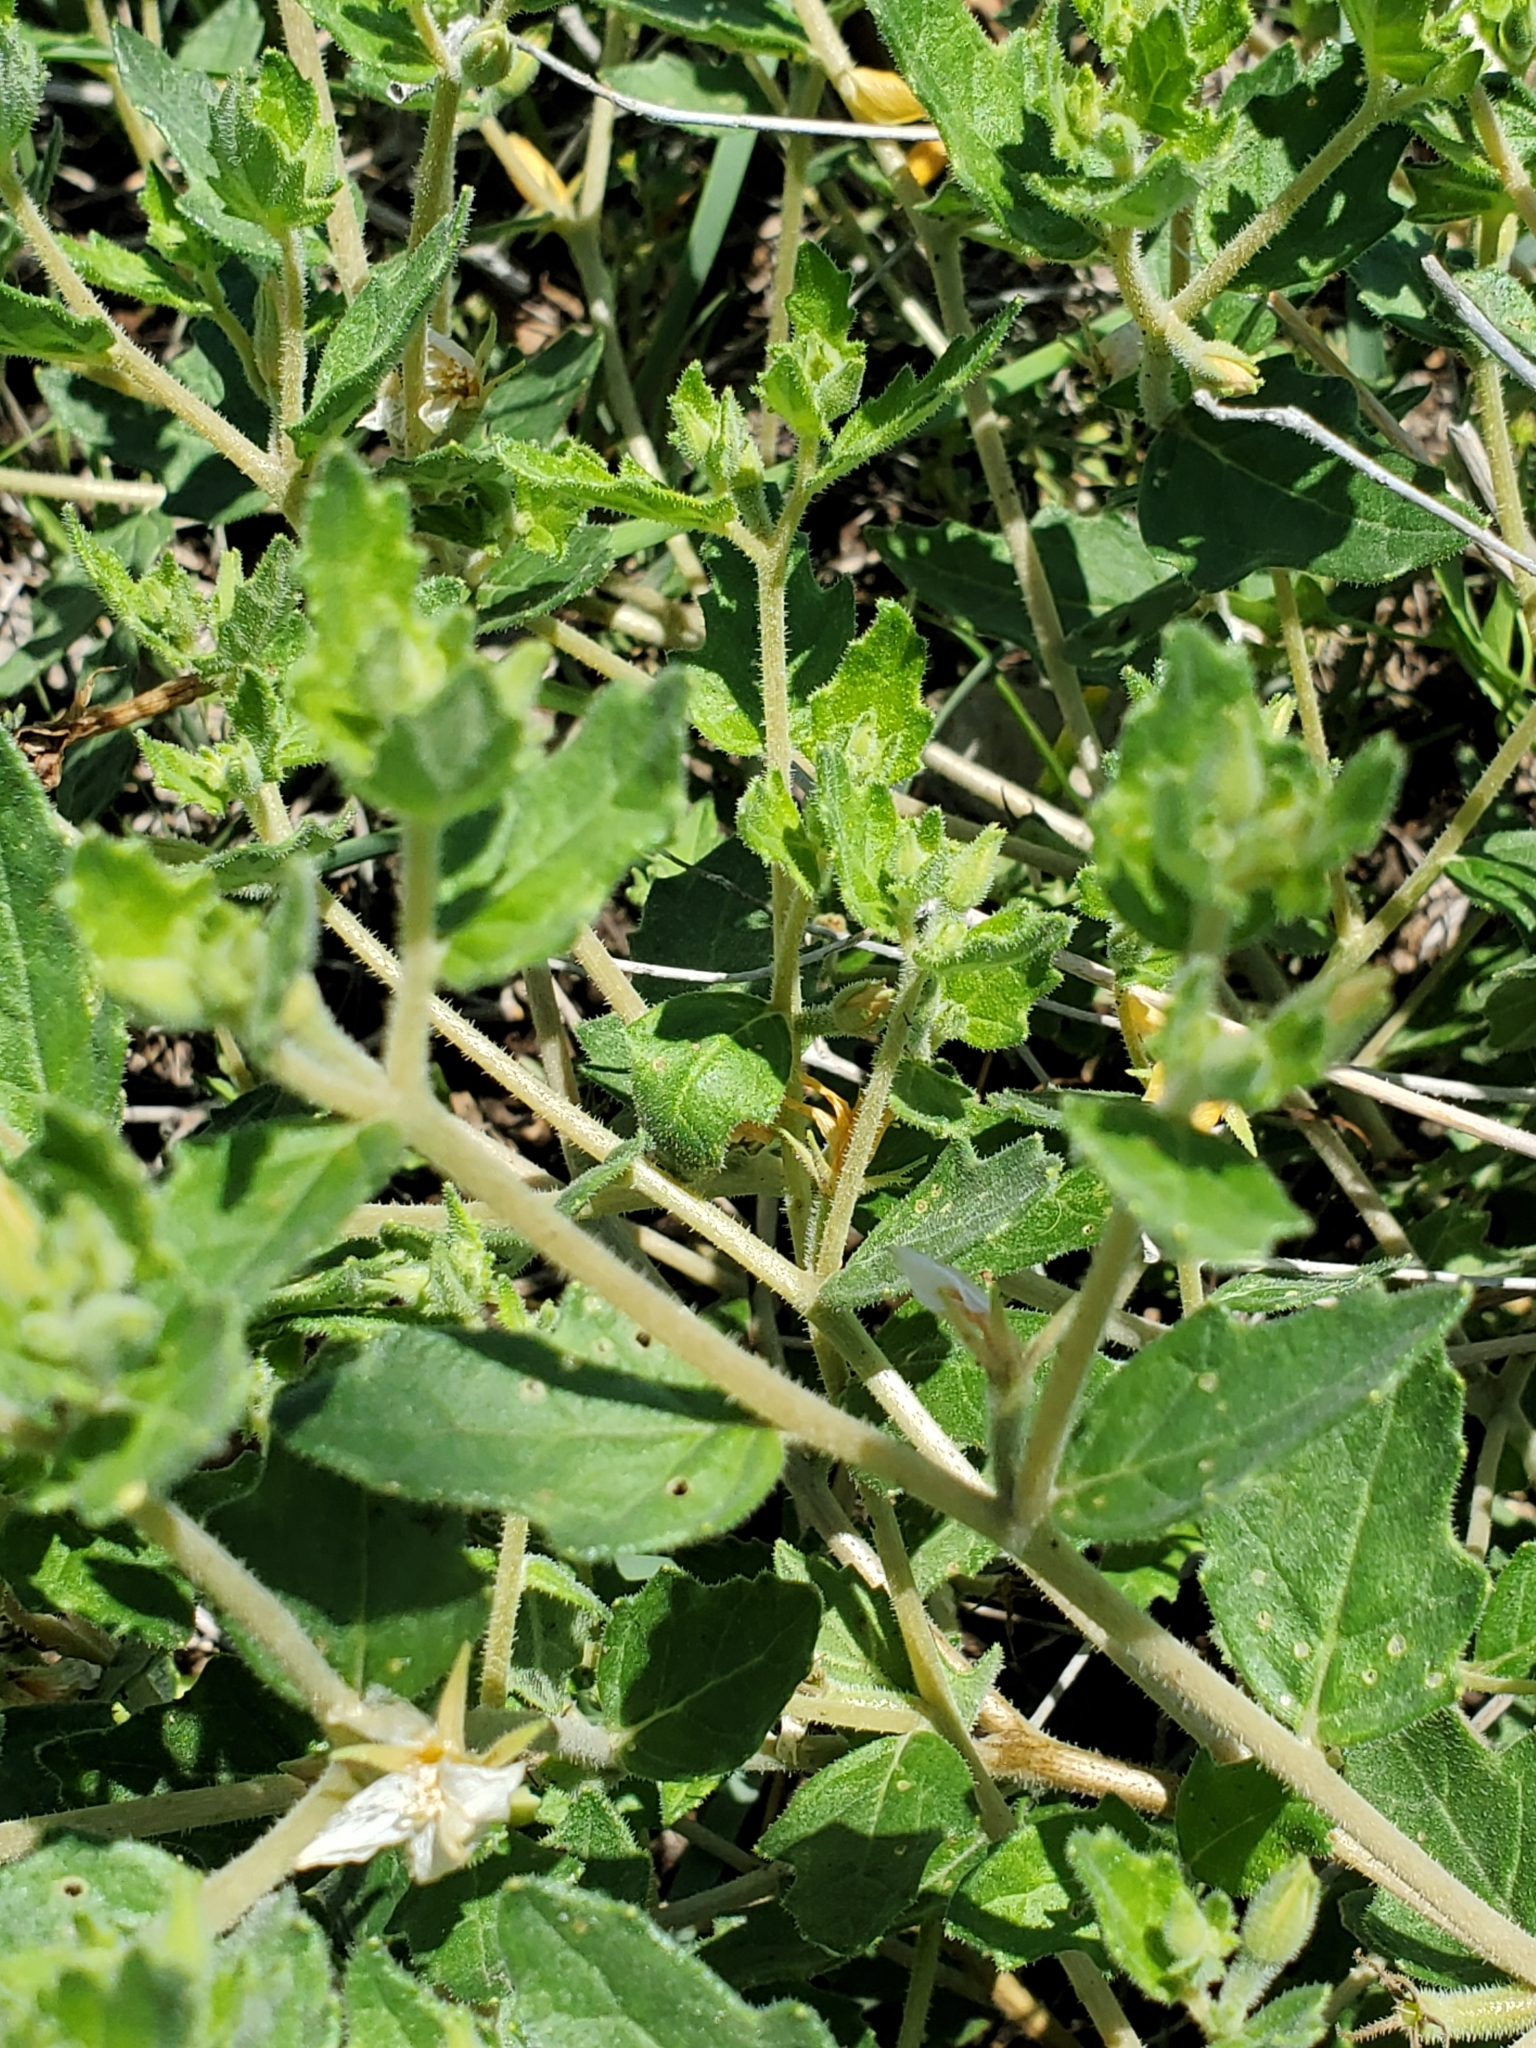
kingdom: Plantae
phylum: Tracheophyta
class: Magnoliopsida
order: Cornales
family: Loasaceae
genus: Mentzelia
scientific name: Mentzelia oligosperma
